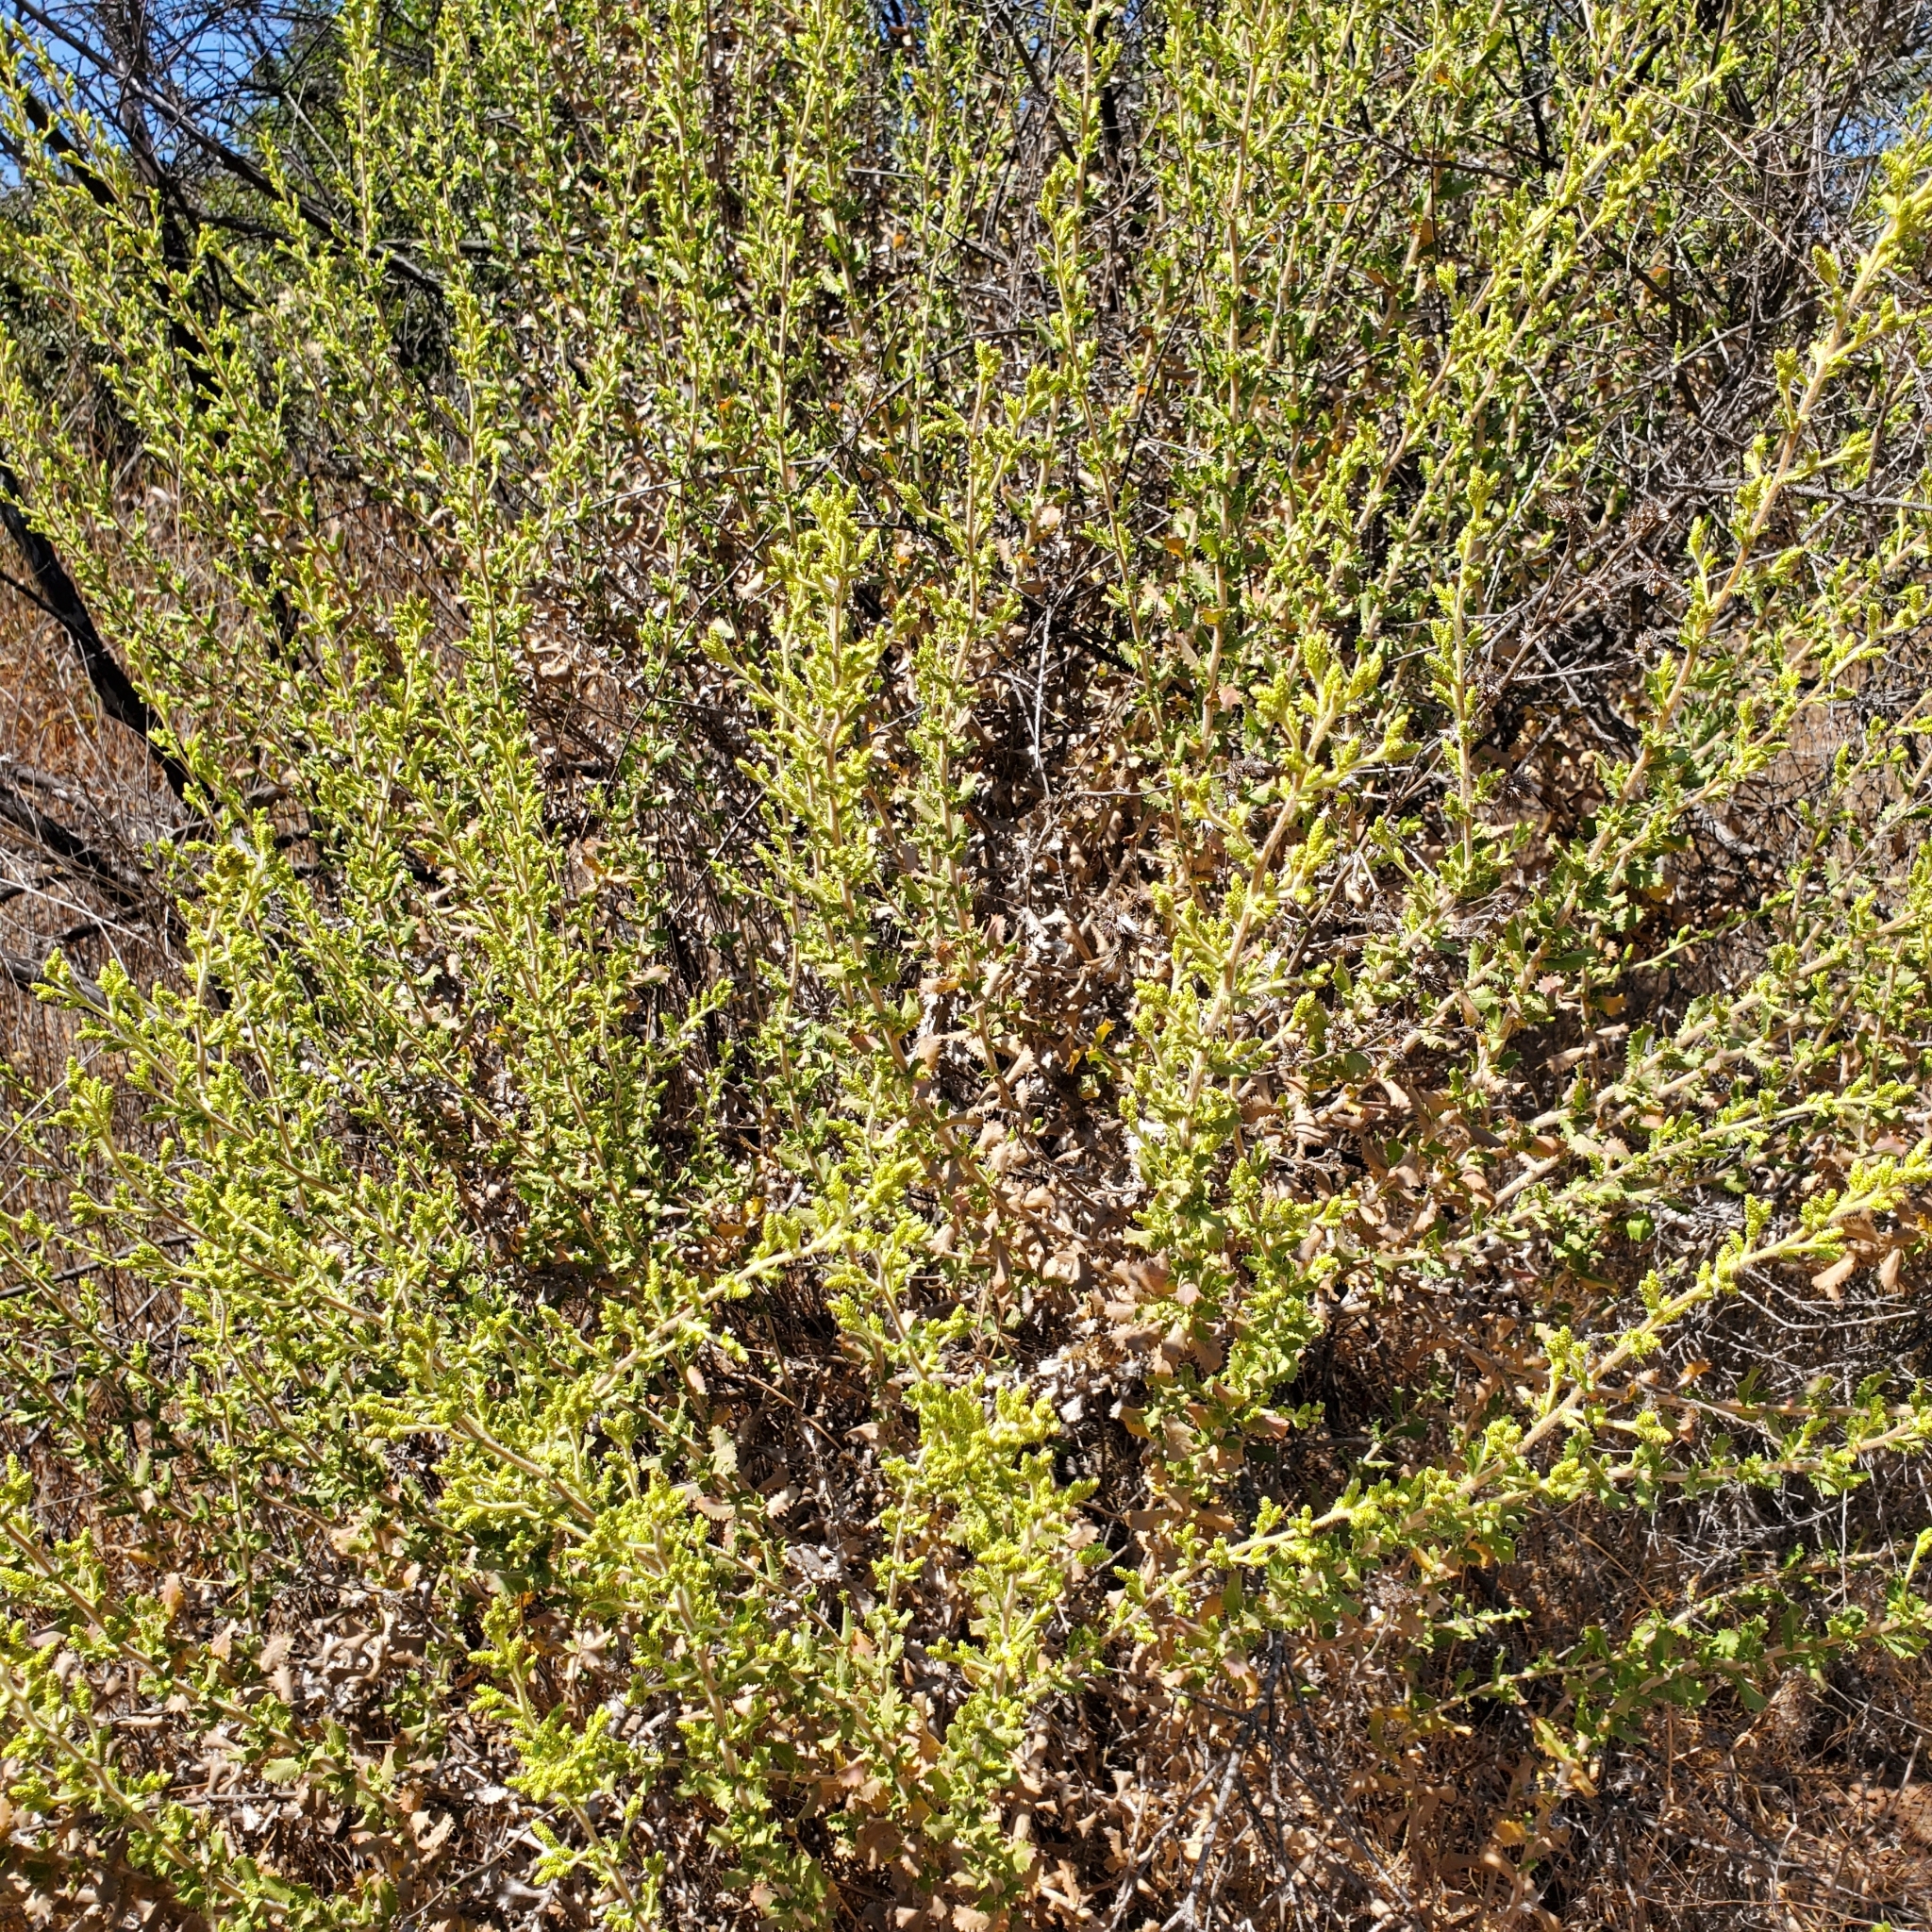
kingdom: Plantae
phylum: Tracheophyta
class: Magnoliopsida
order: Asterales
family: Asteraceae
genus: Hazardia
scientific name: Hazardia squarrosa
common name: Saw-tooth goldenbush
